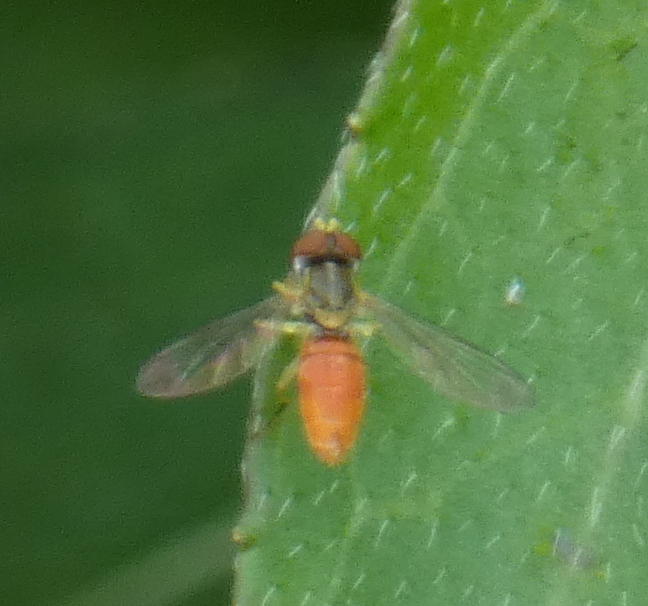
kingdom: Animalia
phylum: Arthropoda
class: Insecta
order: Diptera
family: Syrphidae
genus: Toxomerus
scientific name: Toxomerus marginatus
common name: Syrphid fly
